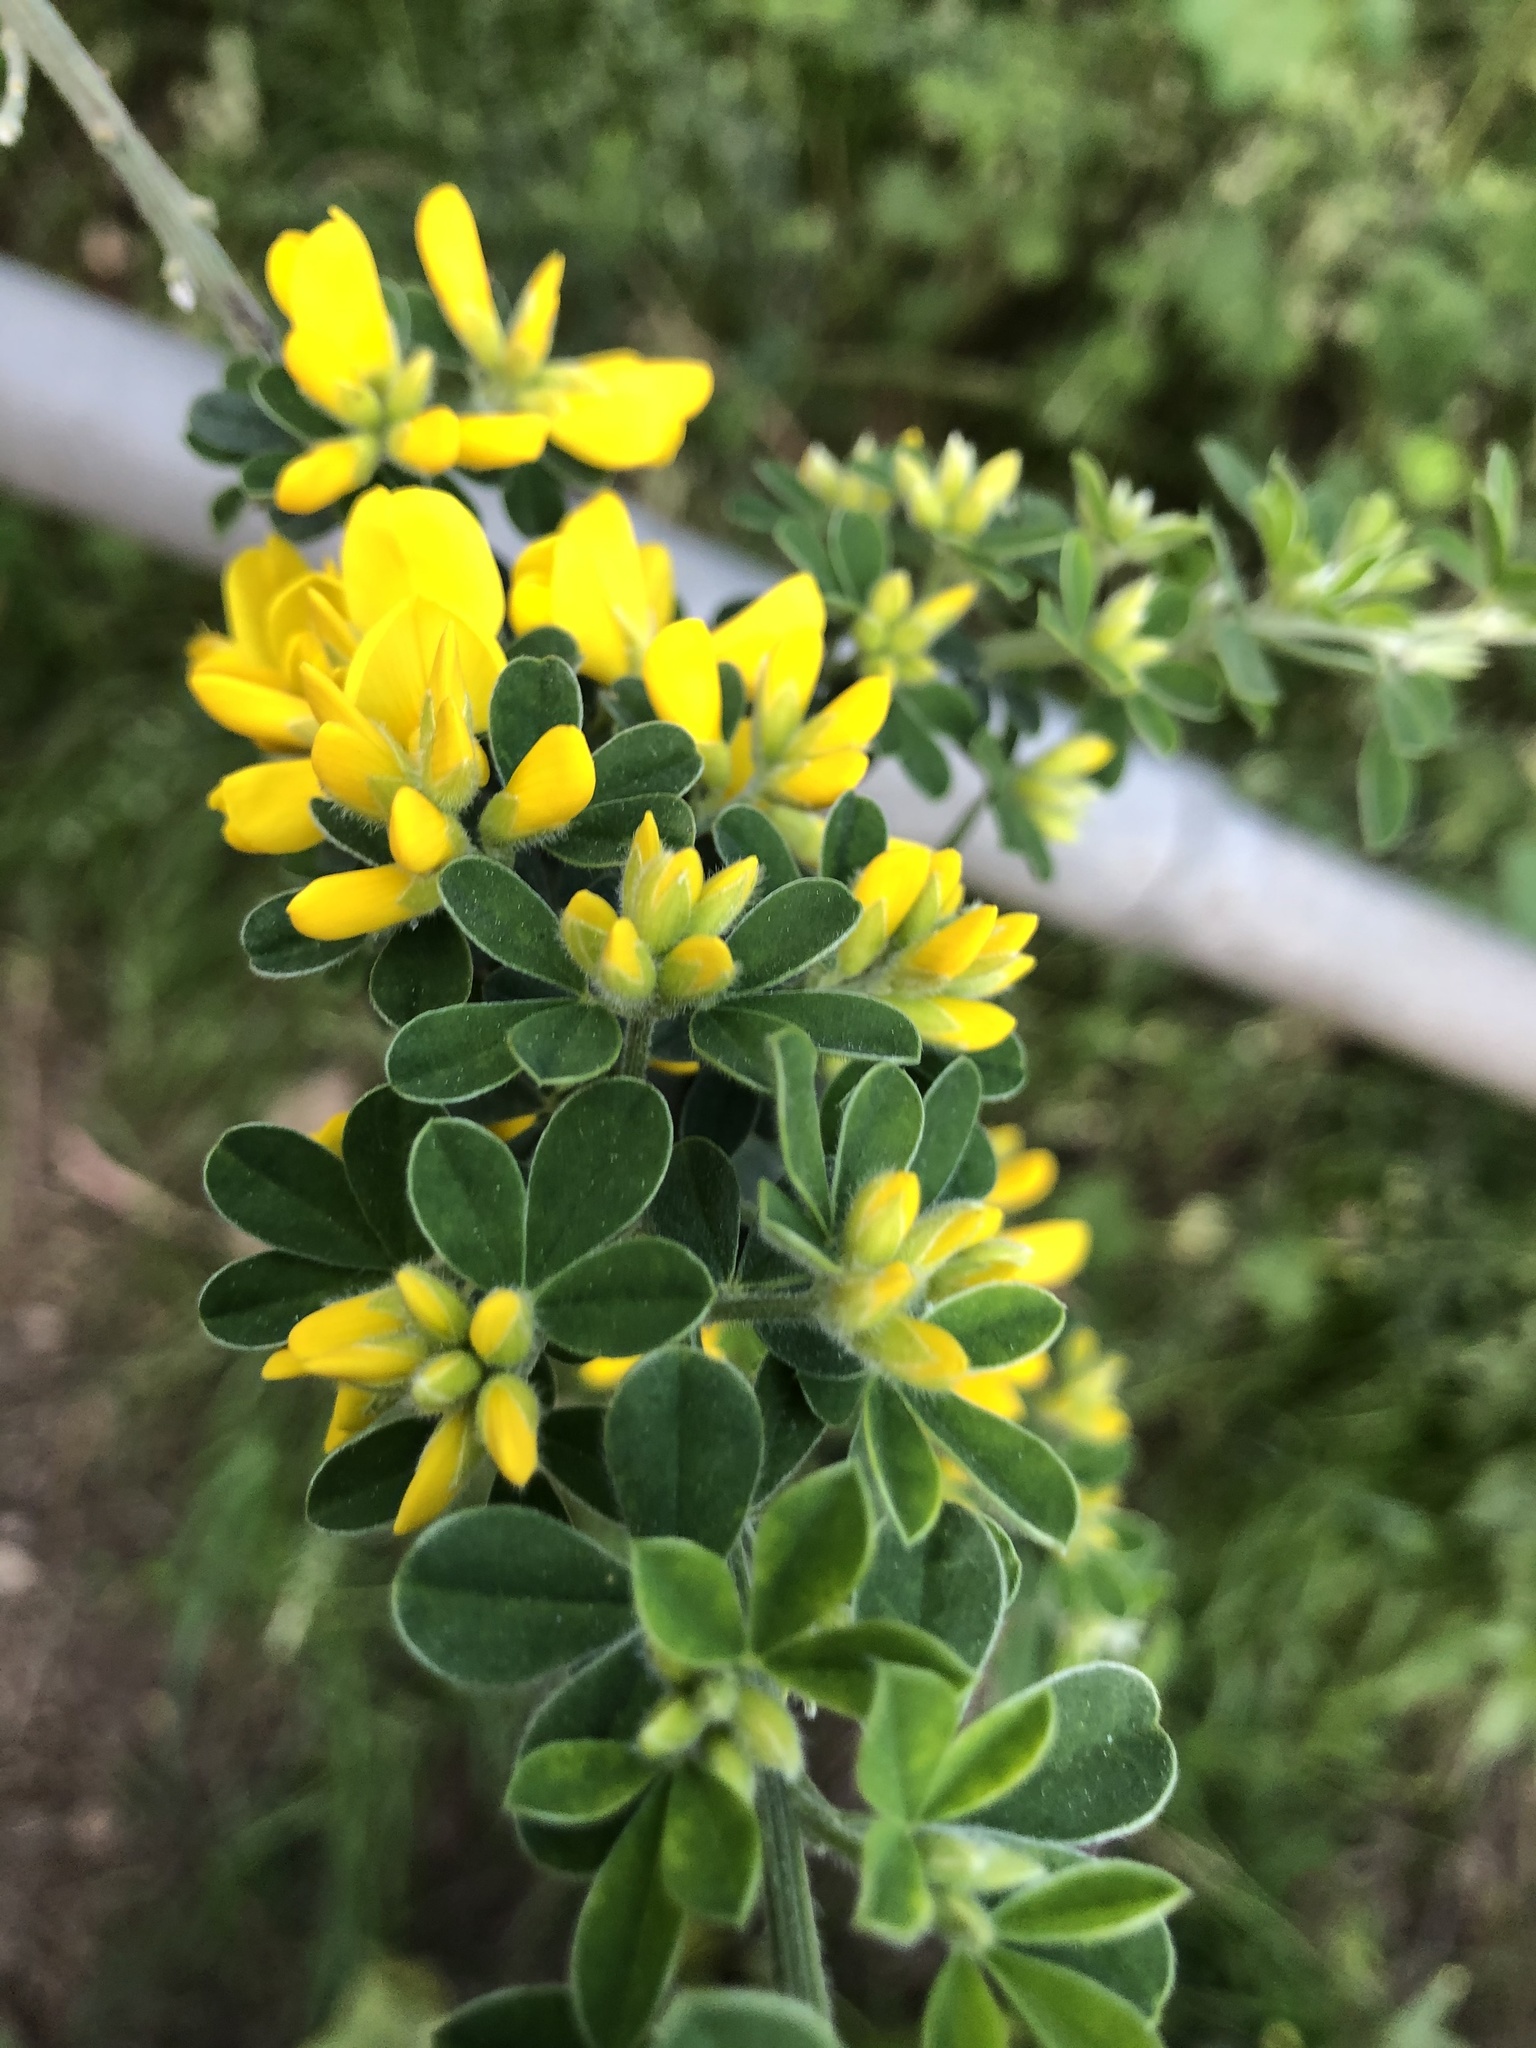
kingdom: Plantae
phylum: Tracheophyta
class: Magnoliopsida
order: Fabales
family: Fabaceae
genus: Genista
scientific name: Genista monspessulana
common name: Montpellier broom
